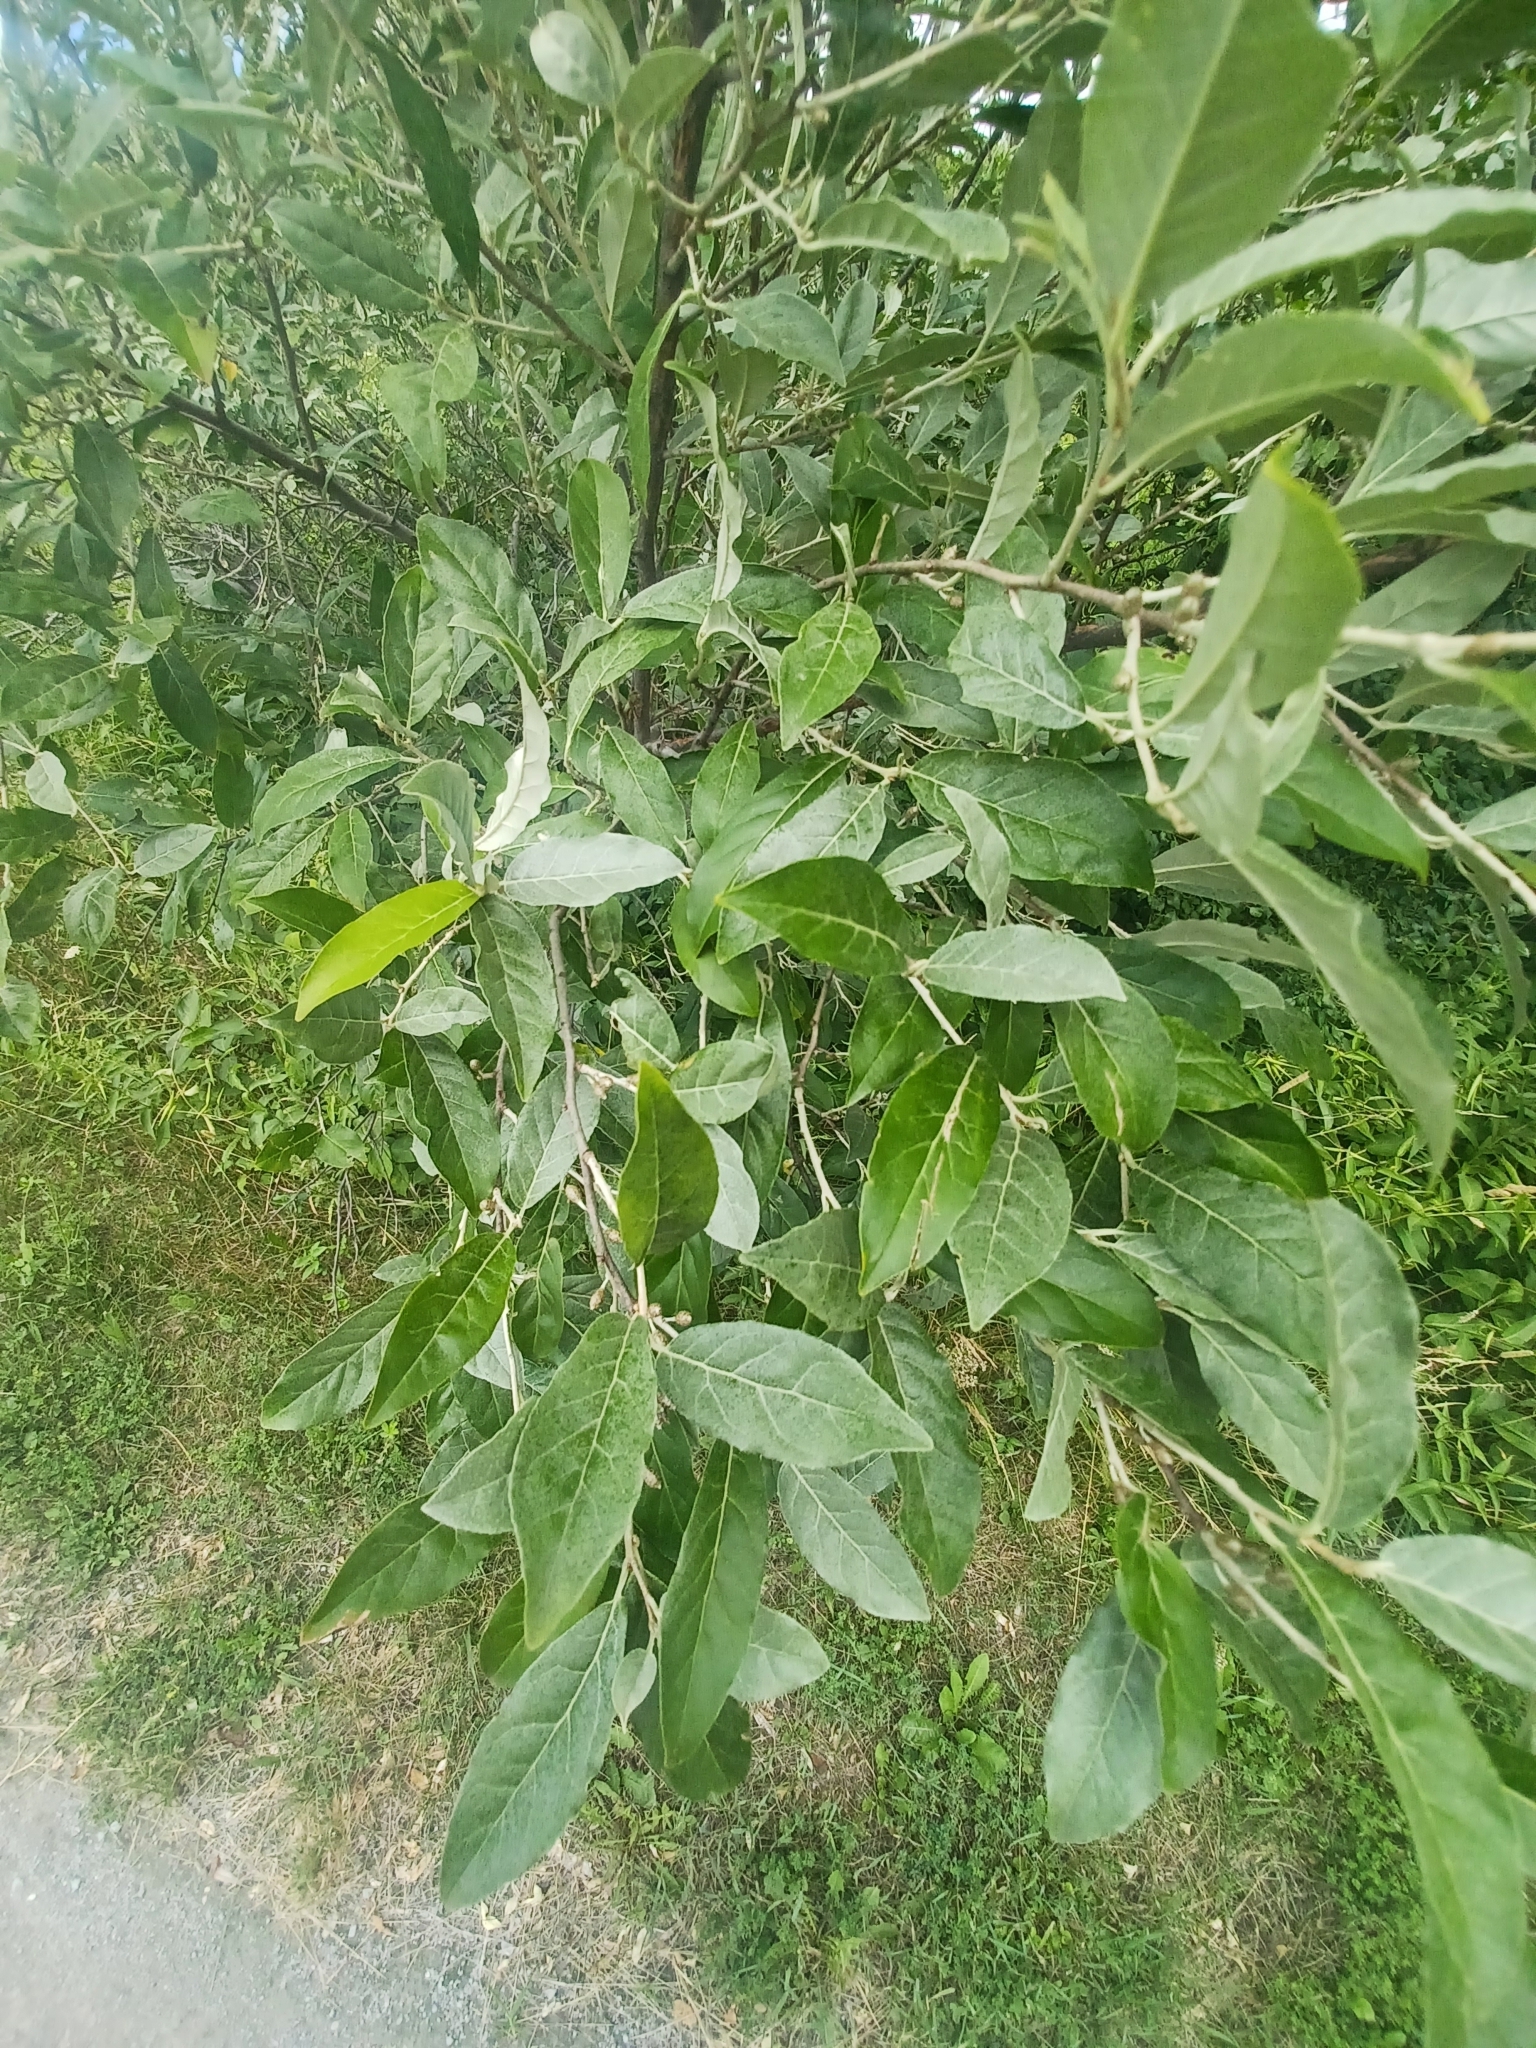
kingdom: Plantae
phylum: Tracheophyta
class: Magnoliopsida
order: Rosales
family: Elaeagnaceae
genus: Elaeagnus
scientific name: Elaeagnus umbellata
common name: Autumn olive
